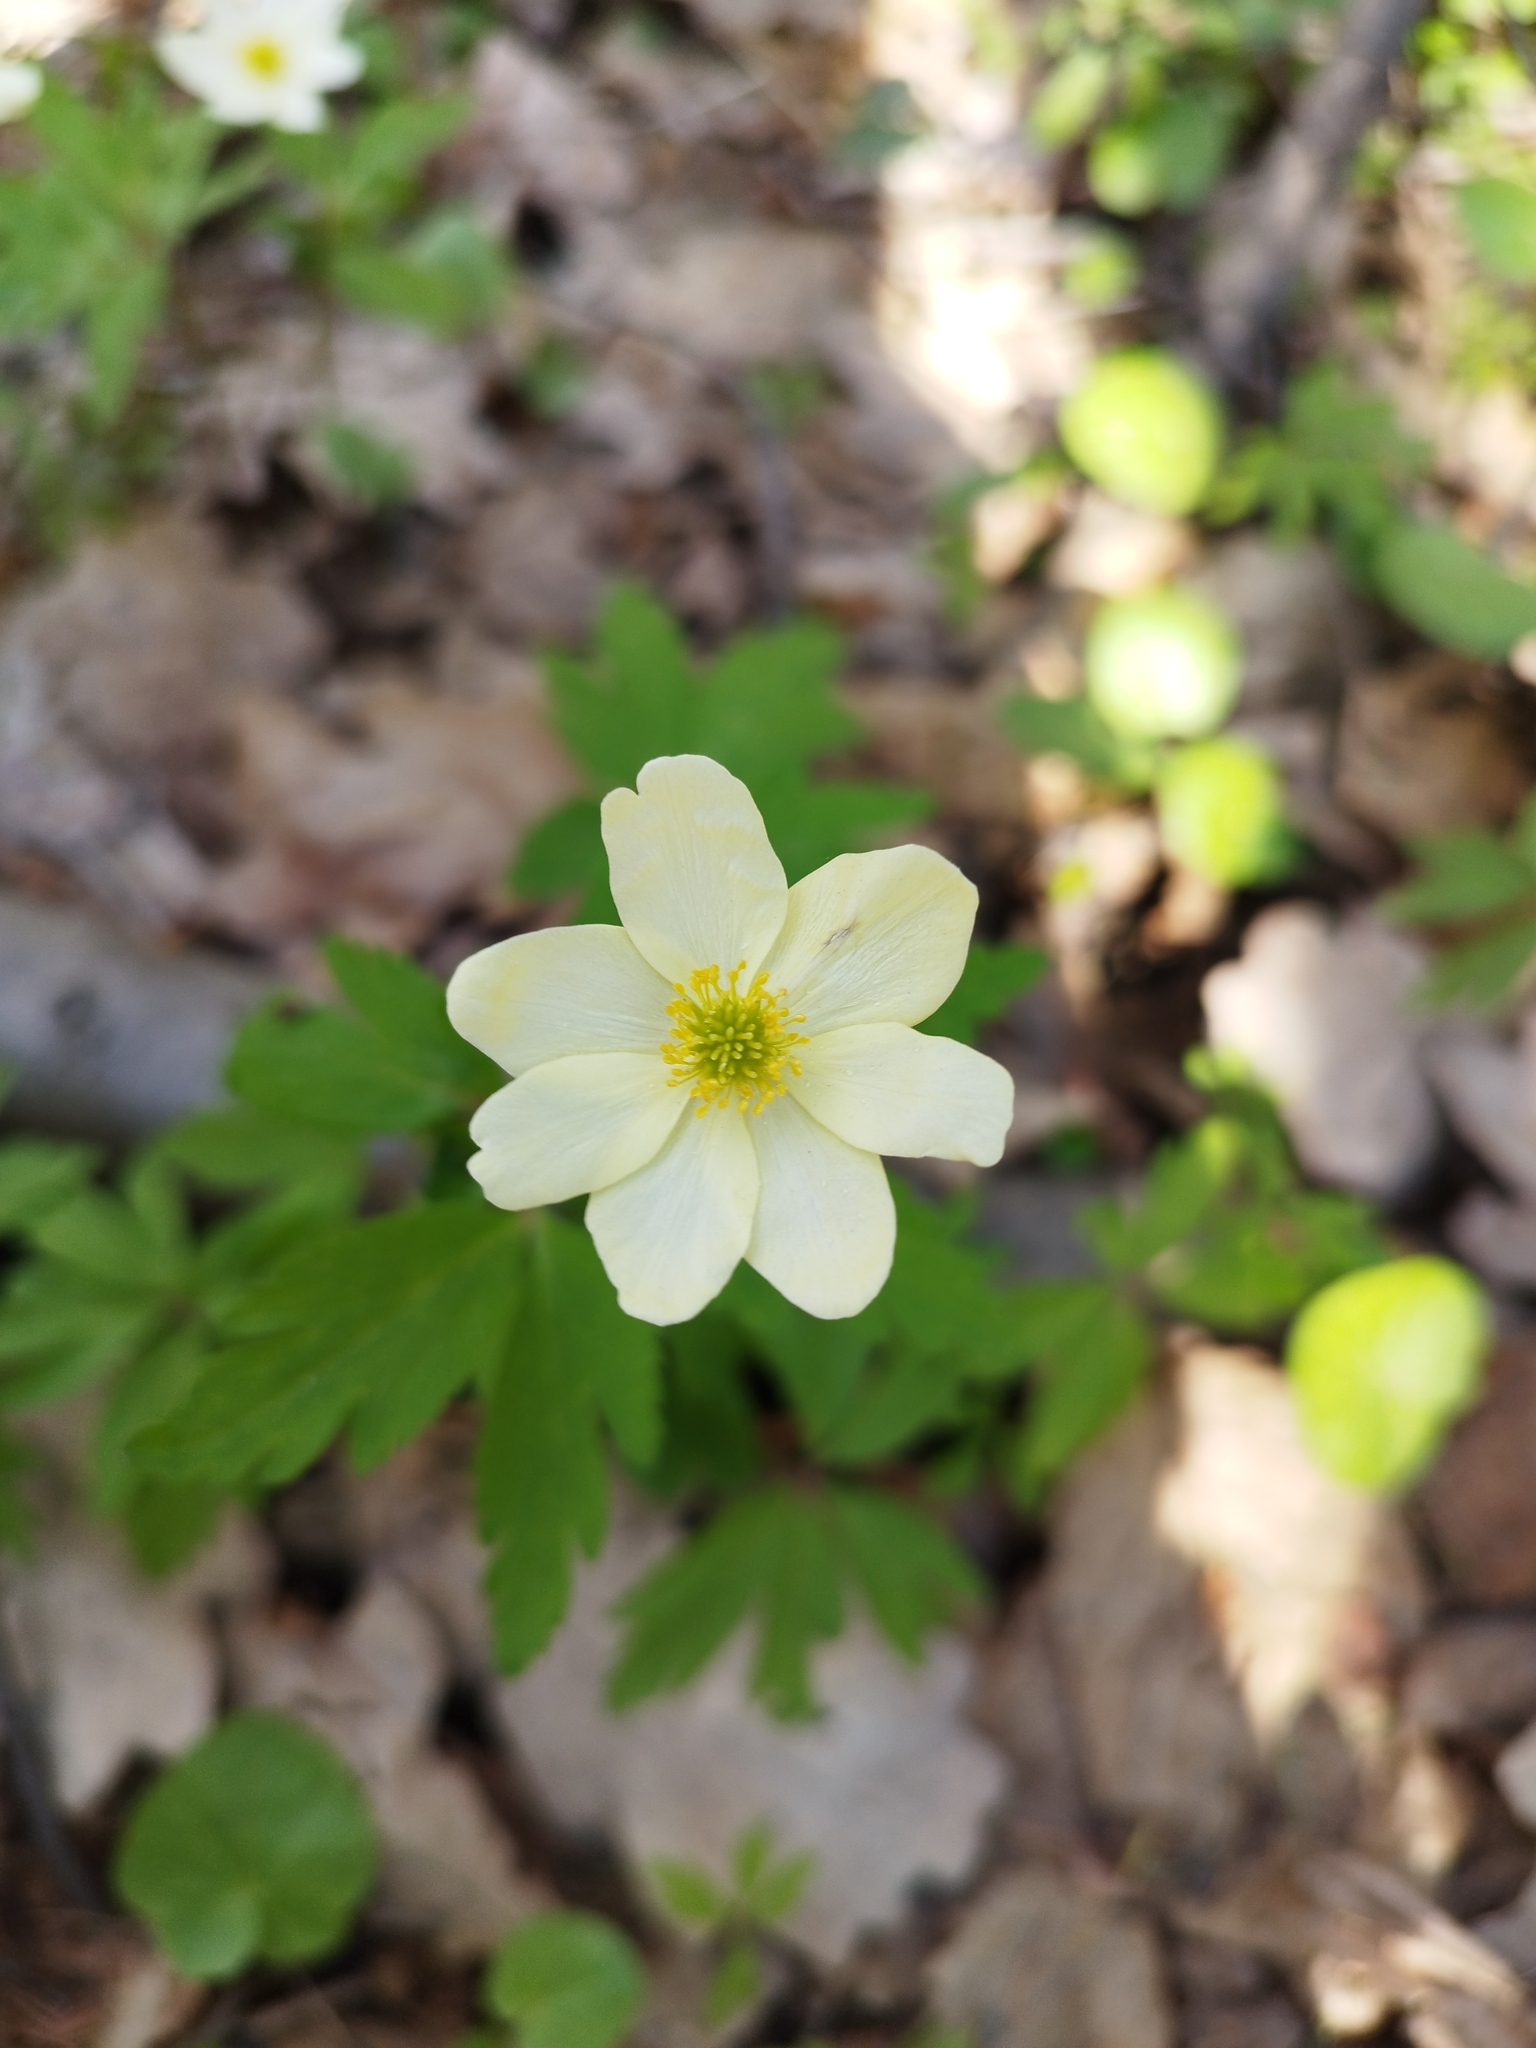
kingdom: Plantae
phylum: Tracheophyta
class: Magnoliopsida
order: Ranunculales
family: Ranunculaceae
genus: Anemone
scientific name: Anemone korzchinskyi
